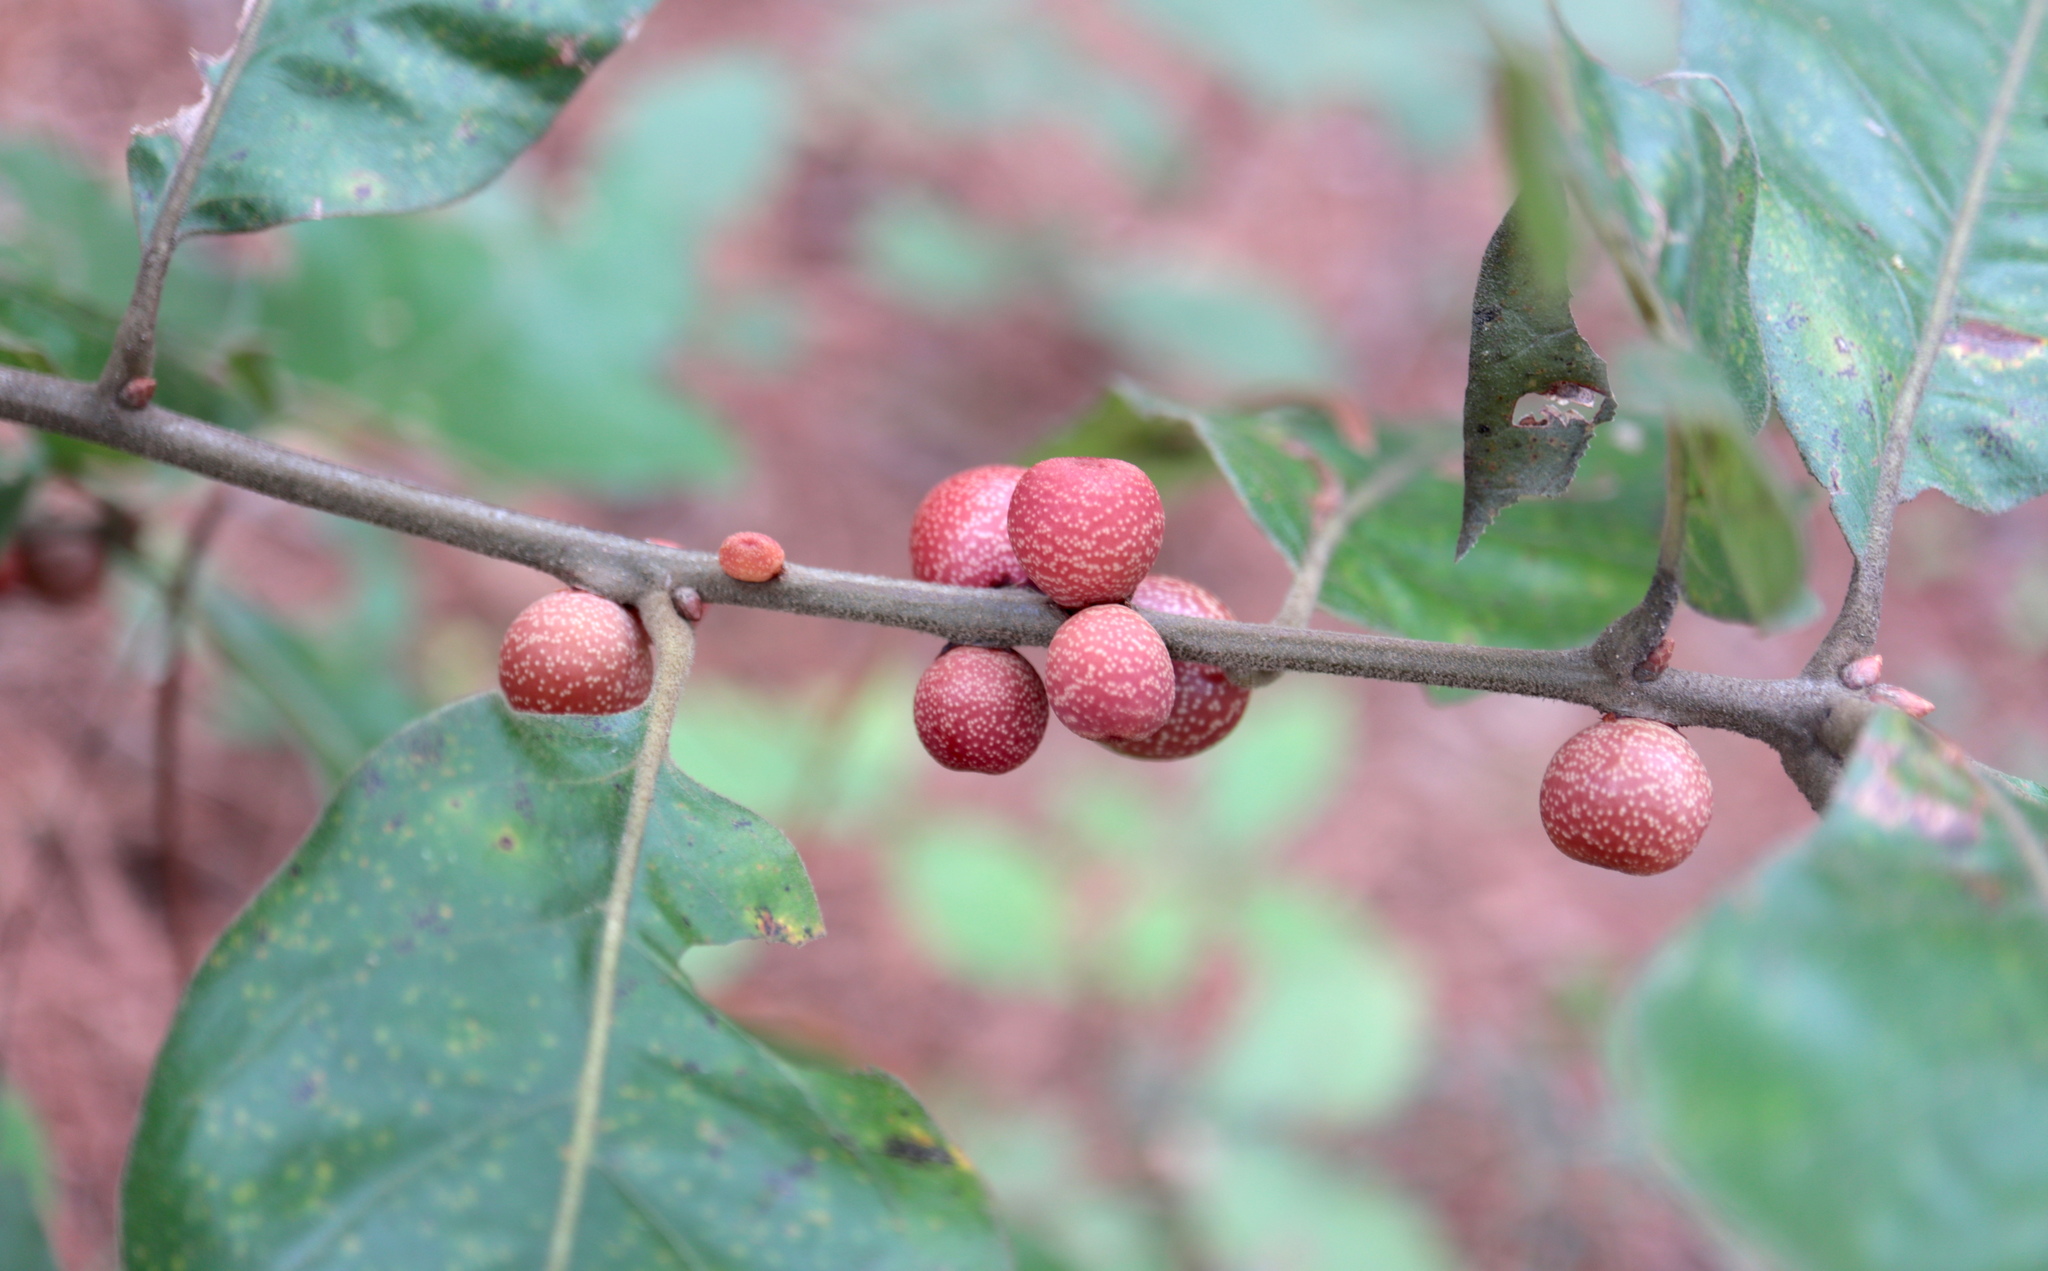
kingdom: Animalia
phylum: Arthropoda
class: Insecta
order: Hymenoptera
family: Cynipidae
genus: Kokkocynips
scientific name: Kokkocynips imbricariae
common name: Banded bullet gall wasp
